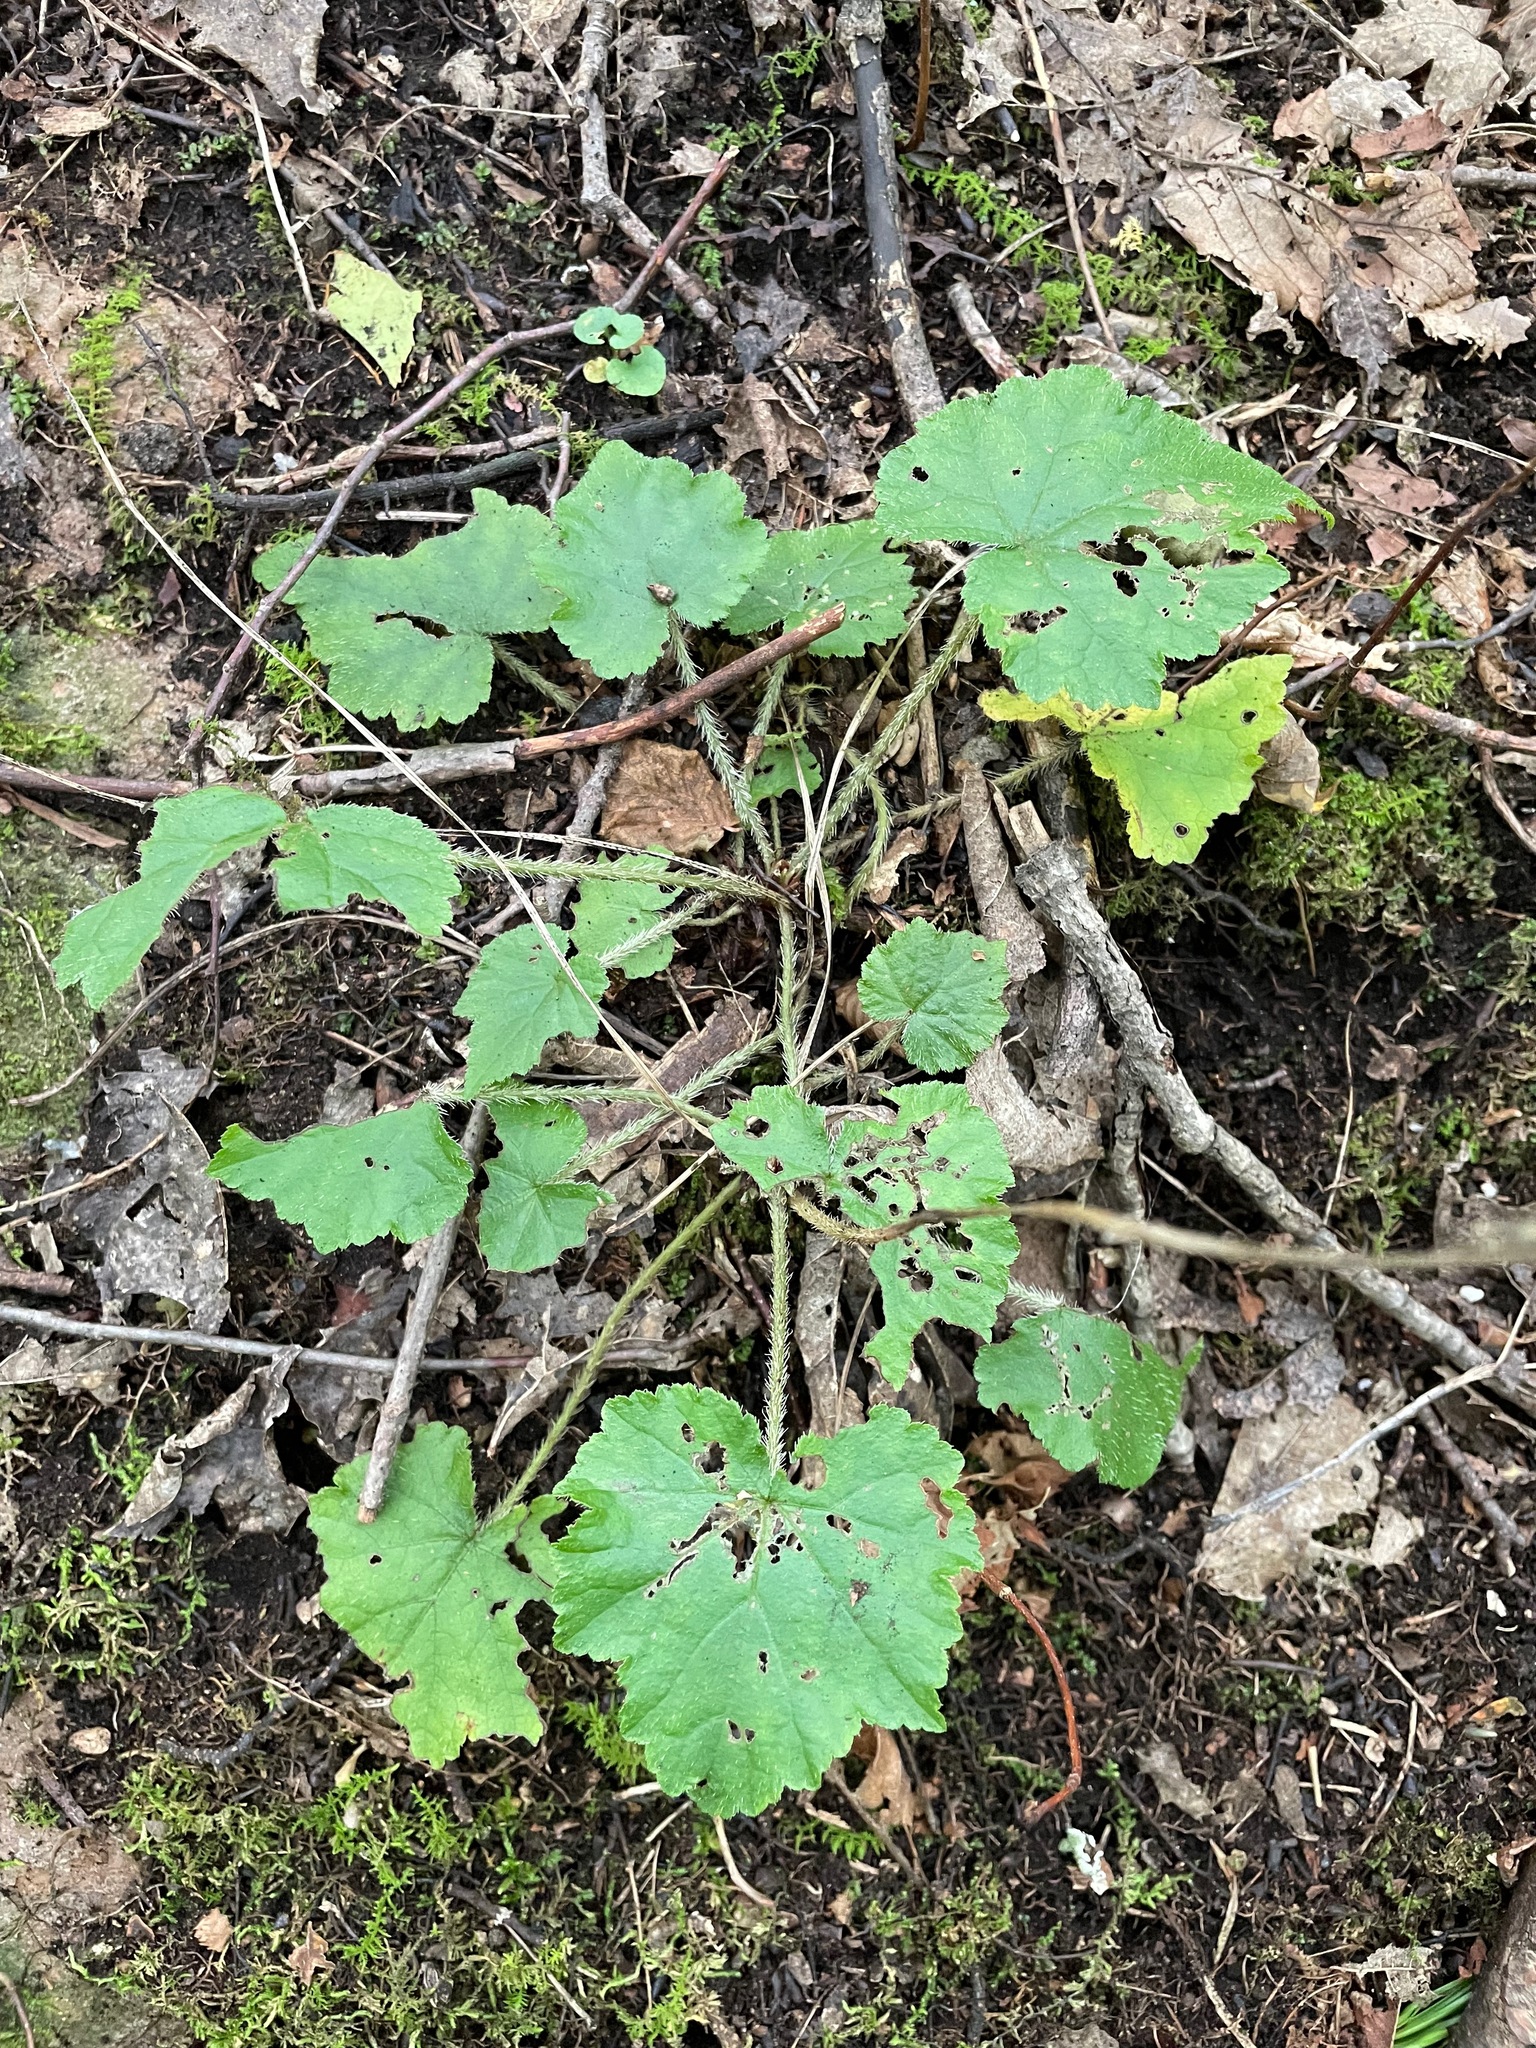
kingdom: Plantae
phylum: Tracheophyta
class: Magnoliopsida
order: Saxifragales
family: Saxifragaceae
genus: Mitella
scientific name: Mitella diphylla
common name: Coolwort
